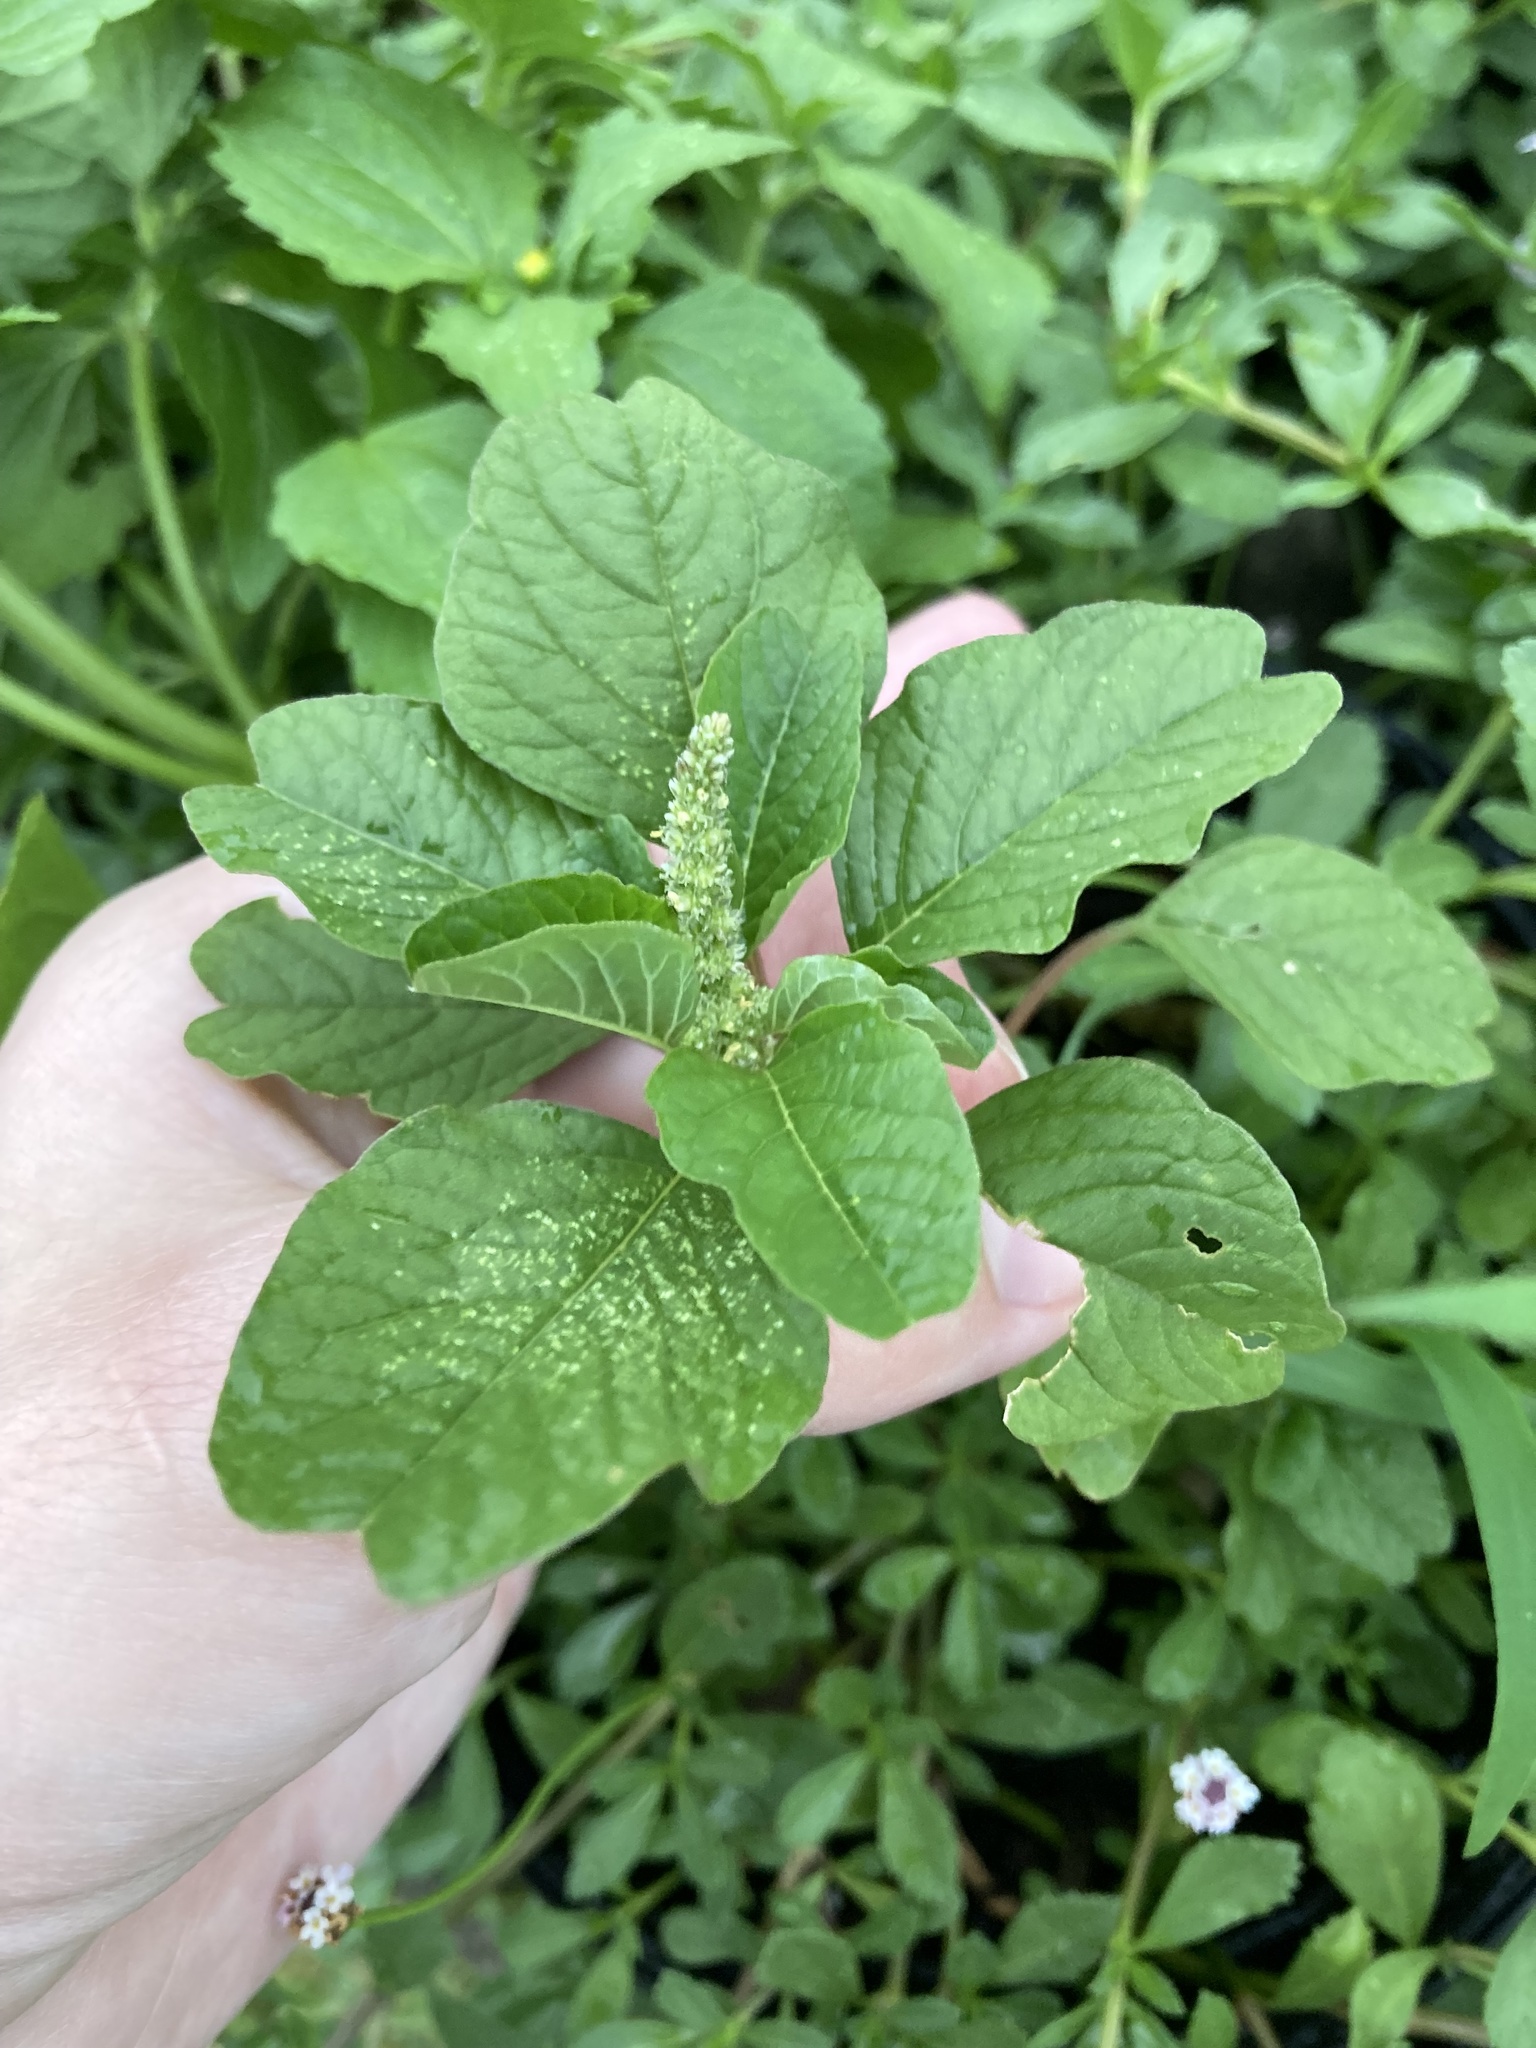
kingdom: Plantae
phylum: Tracheophyta
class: Magnoliopsida
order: Caryophyllales
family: Amaranthaceae
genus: Amaranthus
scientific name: Amaranthus emarginatus
